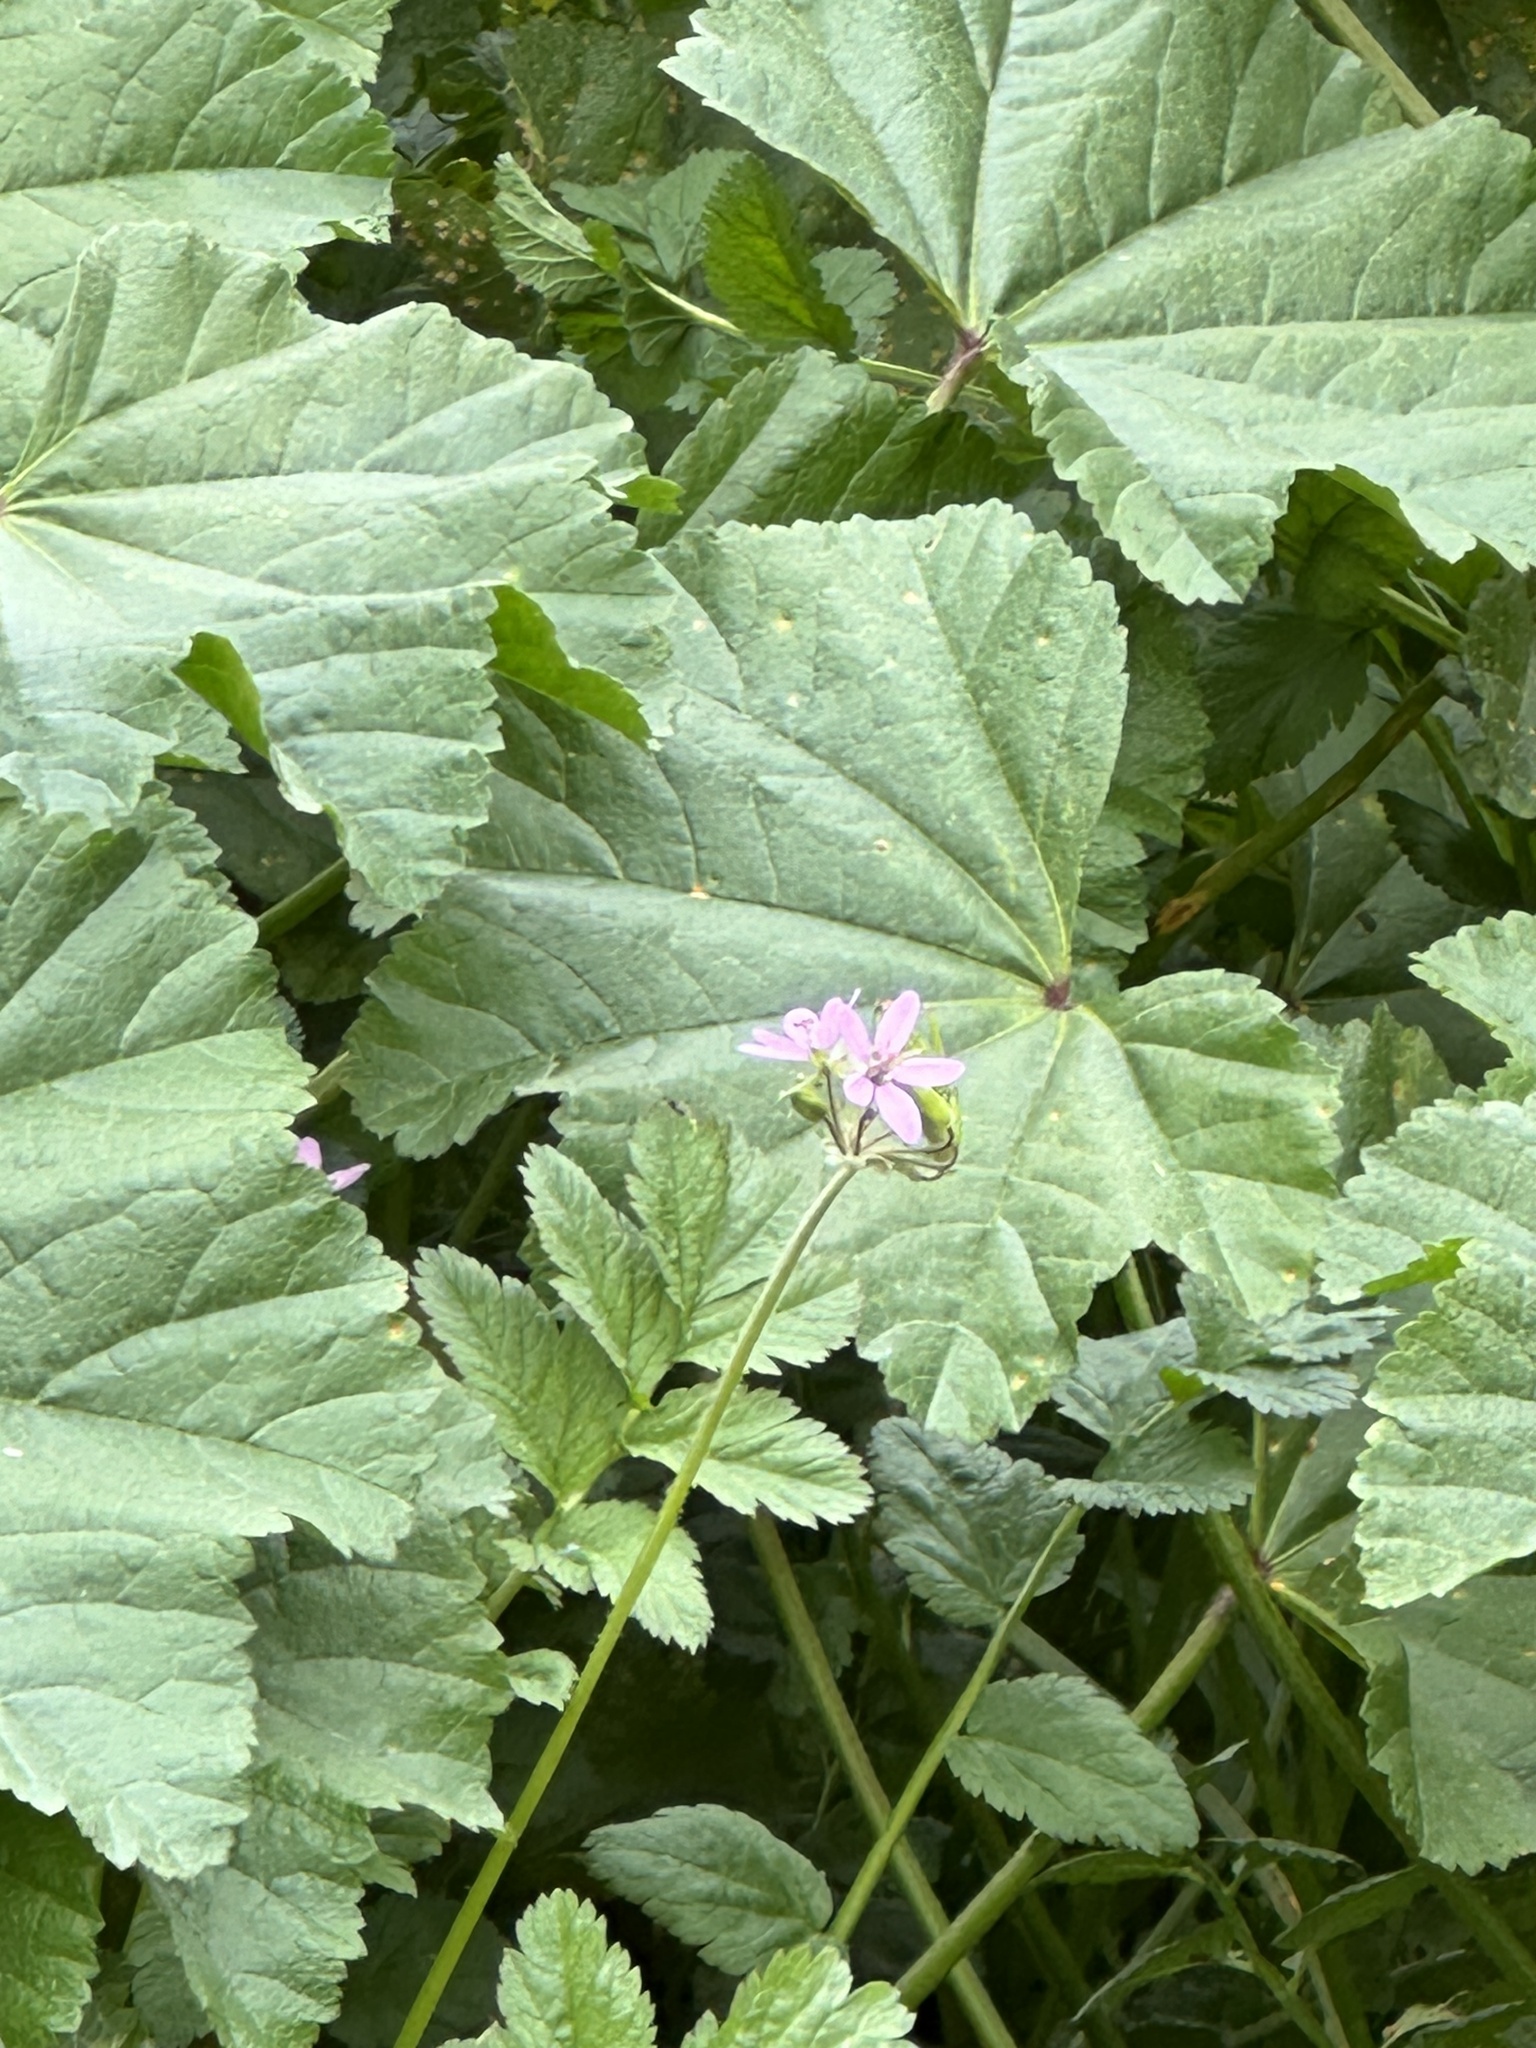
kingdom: Plantae
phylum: Tracheophyta
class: Magnoliopsida
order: Geraniales
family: Geraniaceae
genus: Erodium
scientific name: Erodium moschatum
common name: Musk stork's-bill
